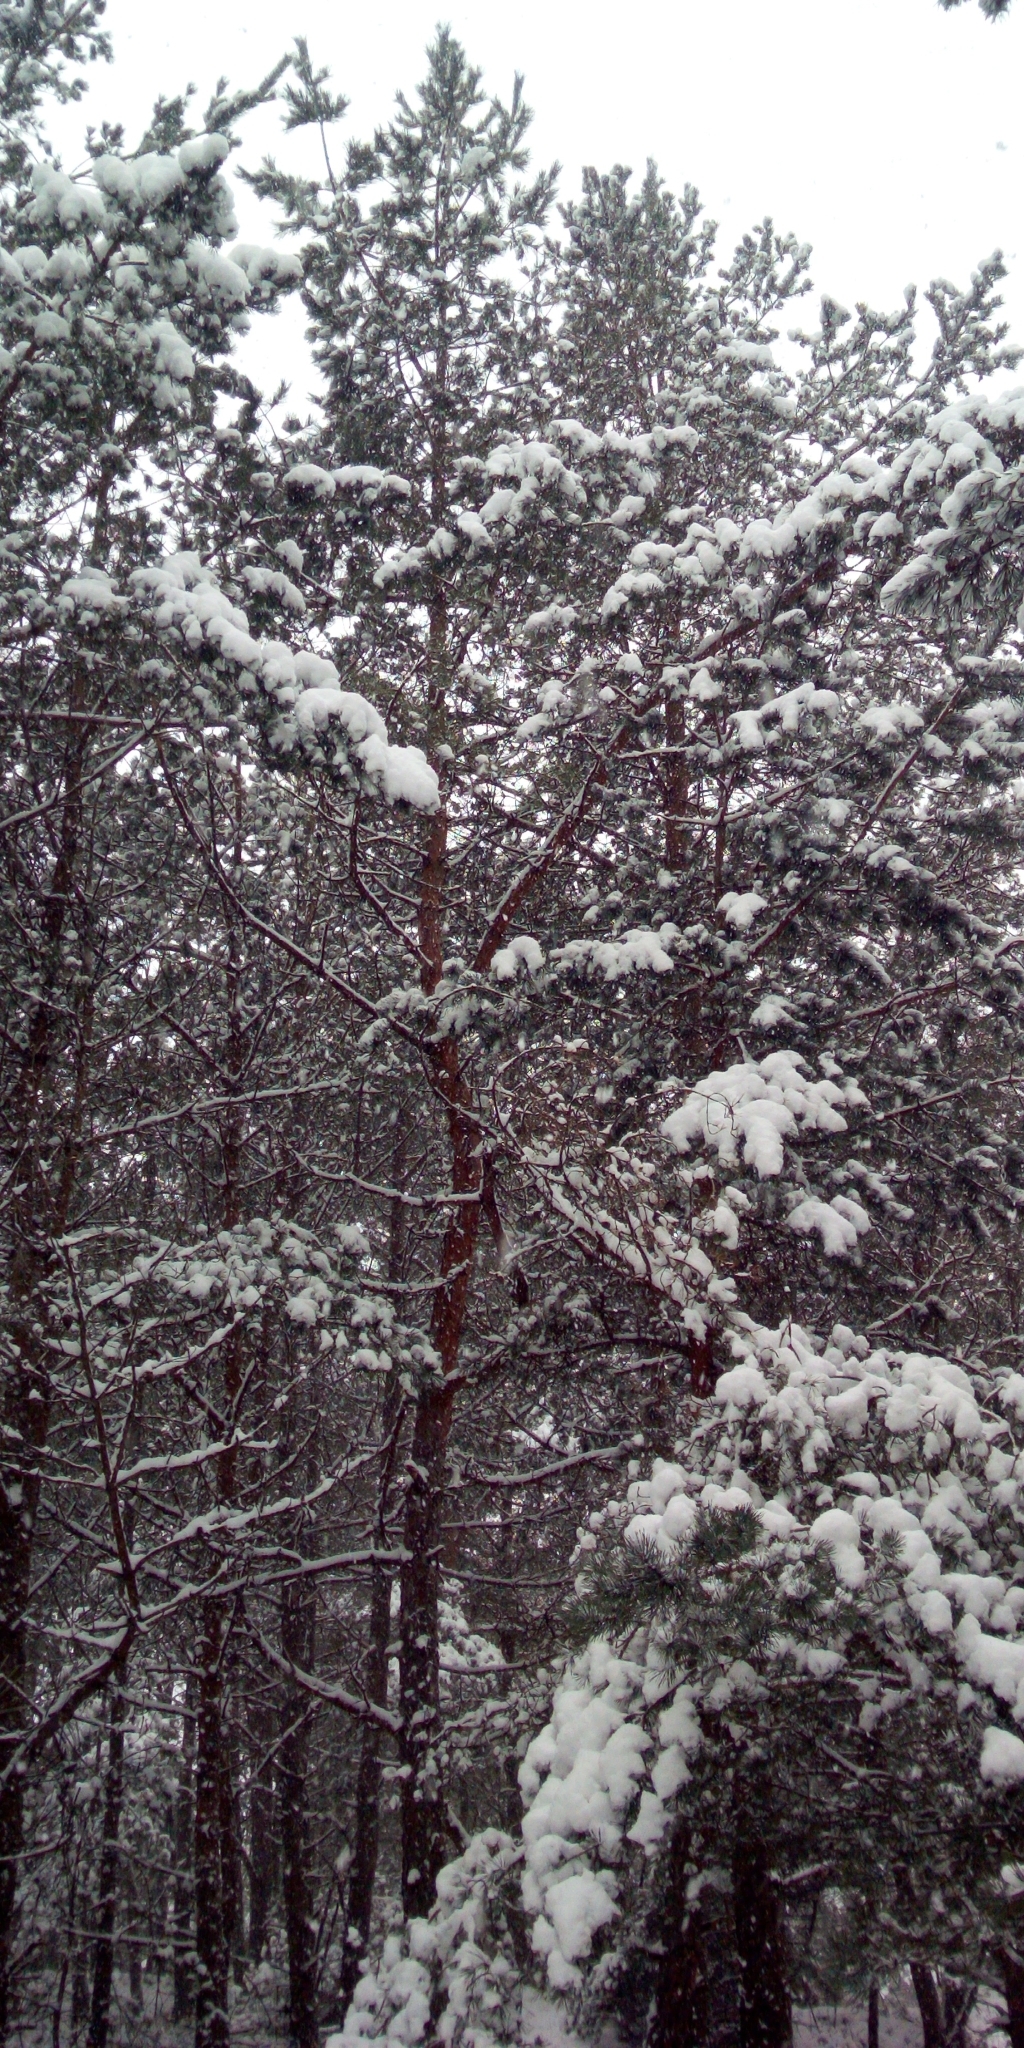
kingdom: Plantae
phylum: Tracheophyta
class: Pinopsida
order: Pinales
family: Pinaceae
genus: Pinus
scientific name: Pinus sylvestris
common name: Scots pine
